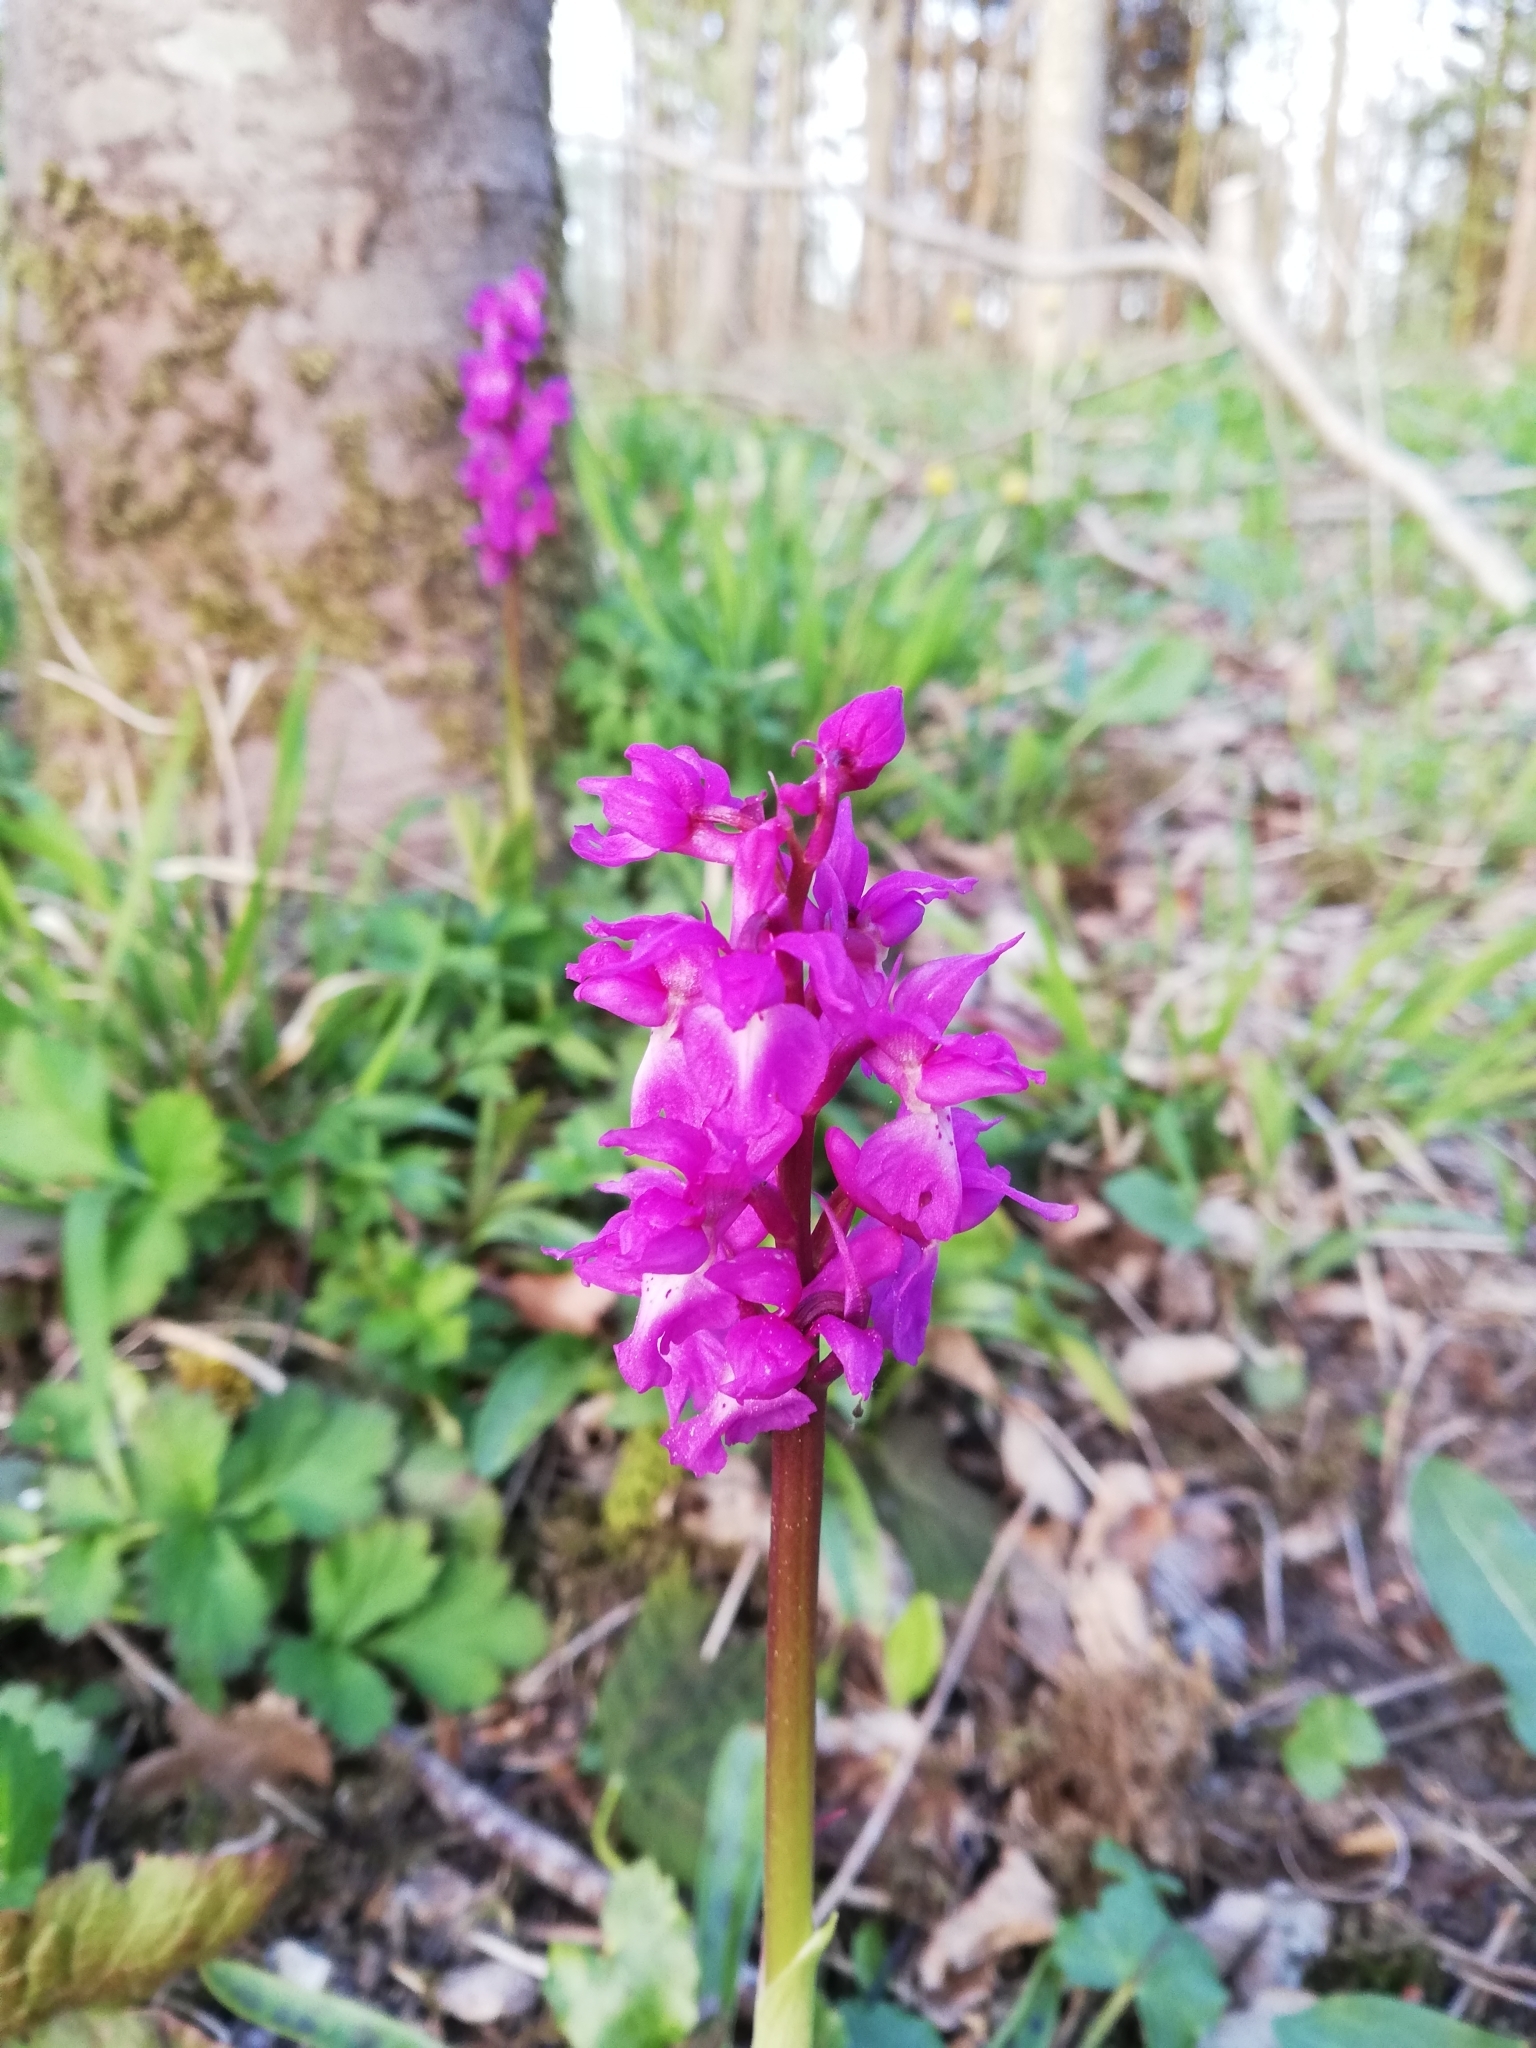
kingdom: Plantae
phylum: Tracheophyta
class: Liliopsida
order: Asparagales
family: Orchidaceae
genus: Orchis
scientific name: Orchis mascula
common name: Early-purple orchid
